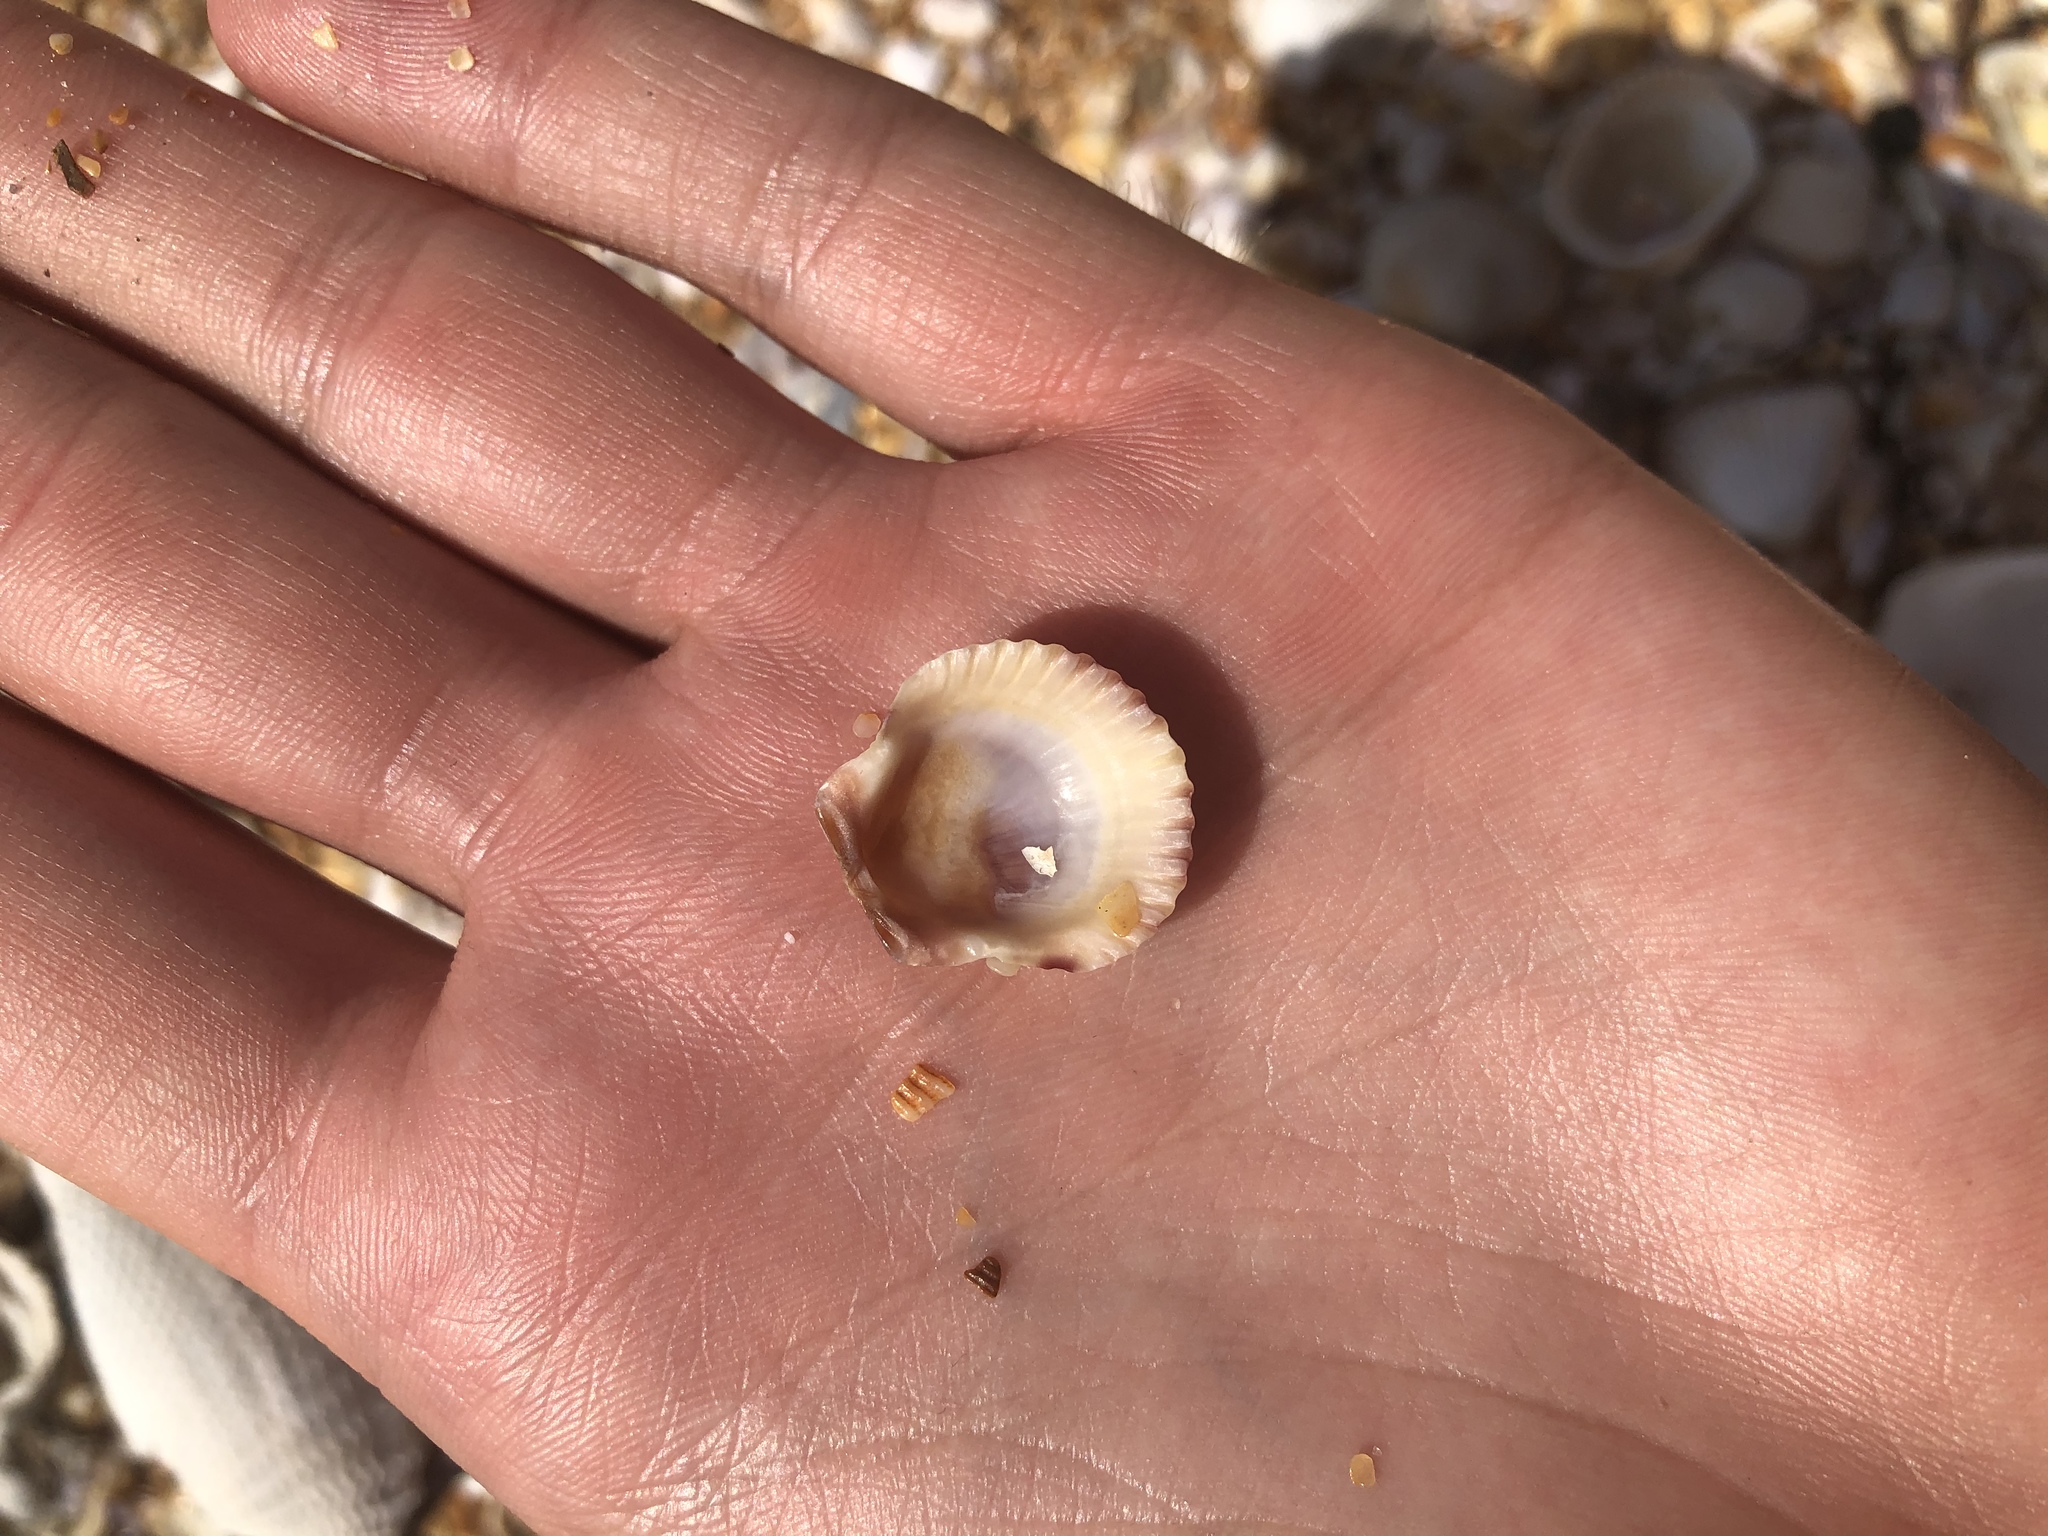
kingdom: Animalia
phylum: Mollusca
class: Bivalvia
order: Pectinida
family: Pectinidae
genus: Argopecten
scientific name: Argopecten gibbus
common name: Atlantic calico scallop
